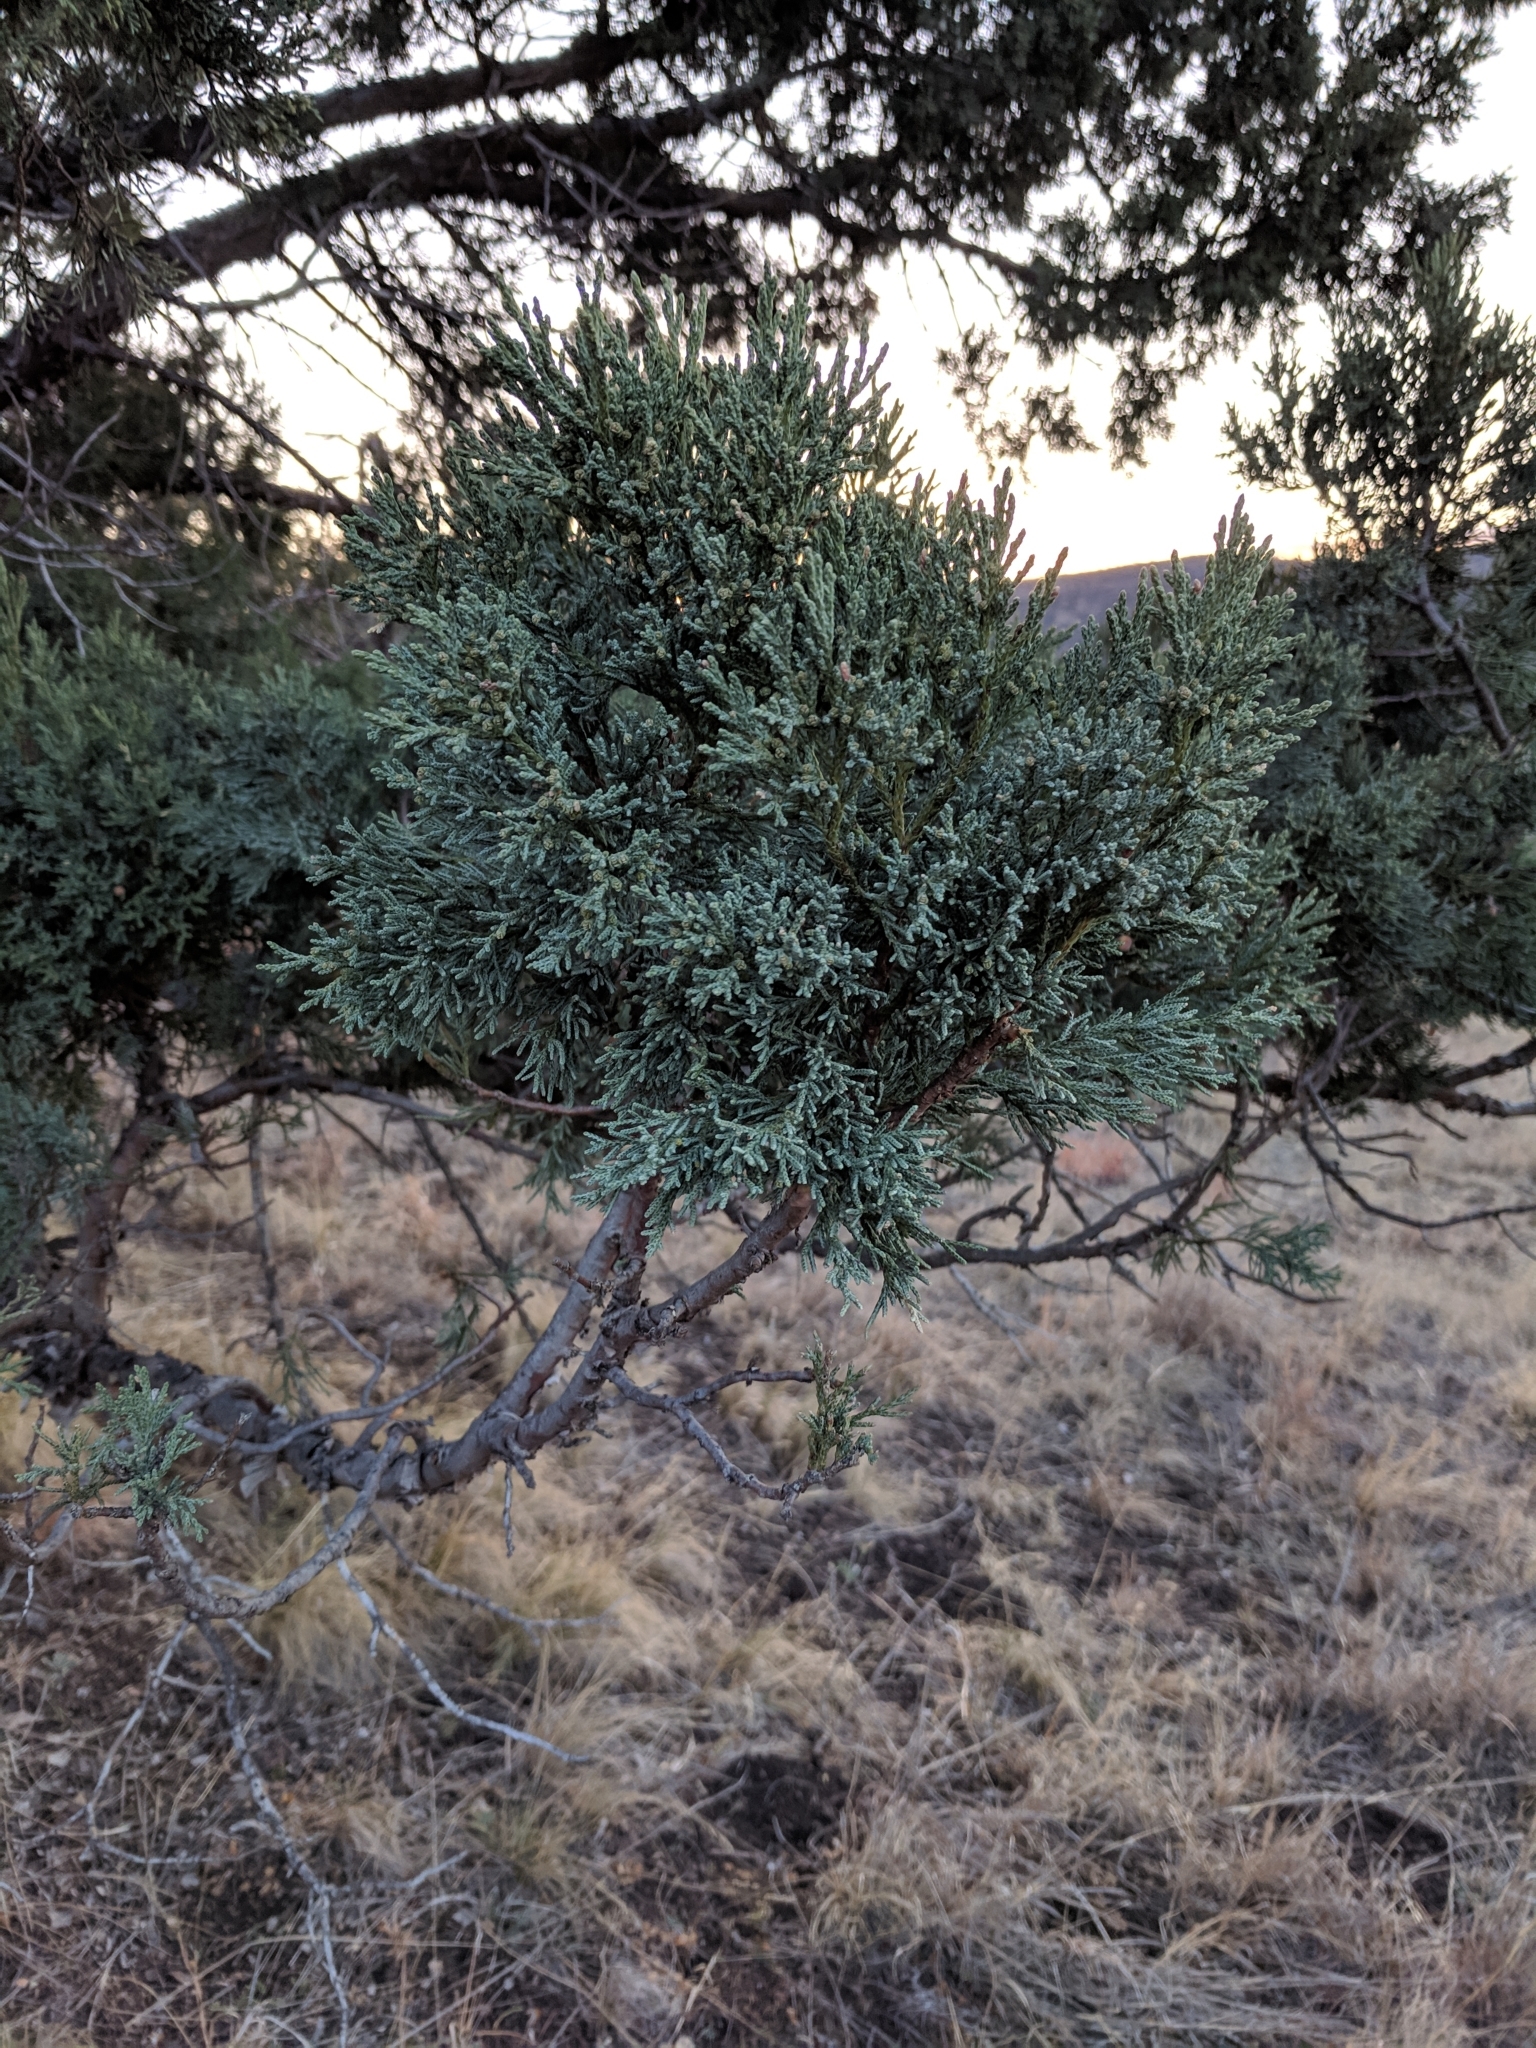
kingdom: Plantae
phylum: Tracheophyta
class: Pinopsida
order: Pinales
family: Cupressaceae
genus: Juniperus
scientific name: Juniperus deppeana
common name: Alligator juniper
